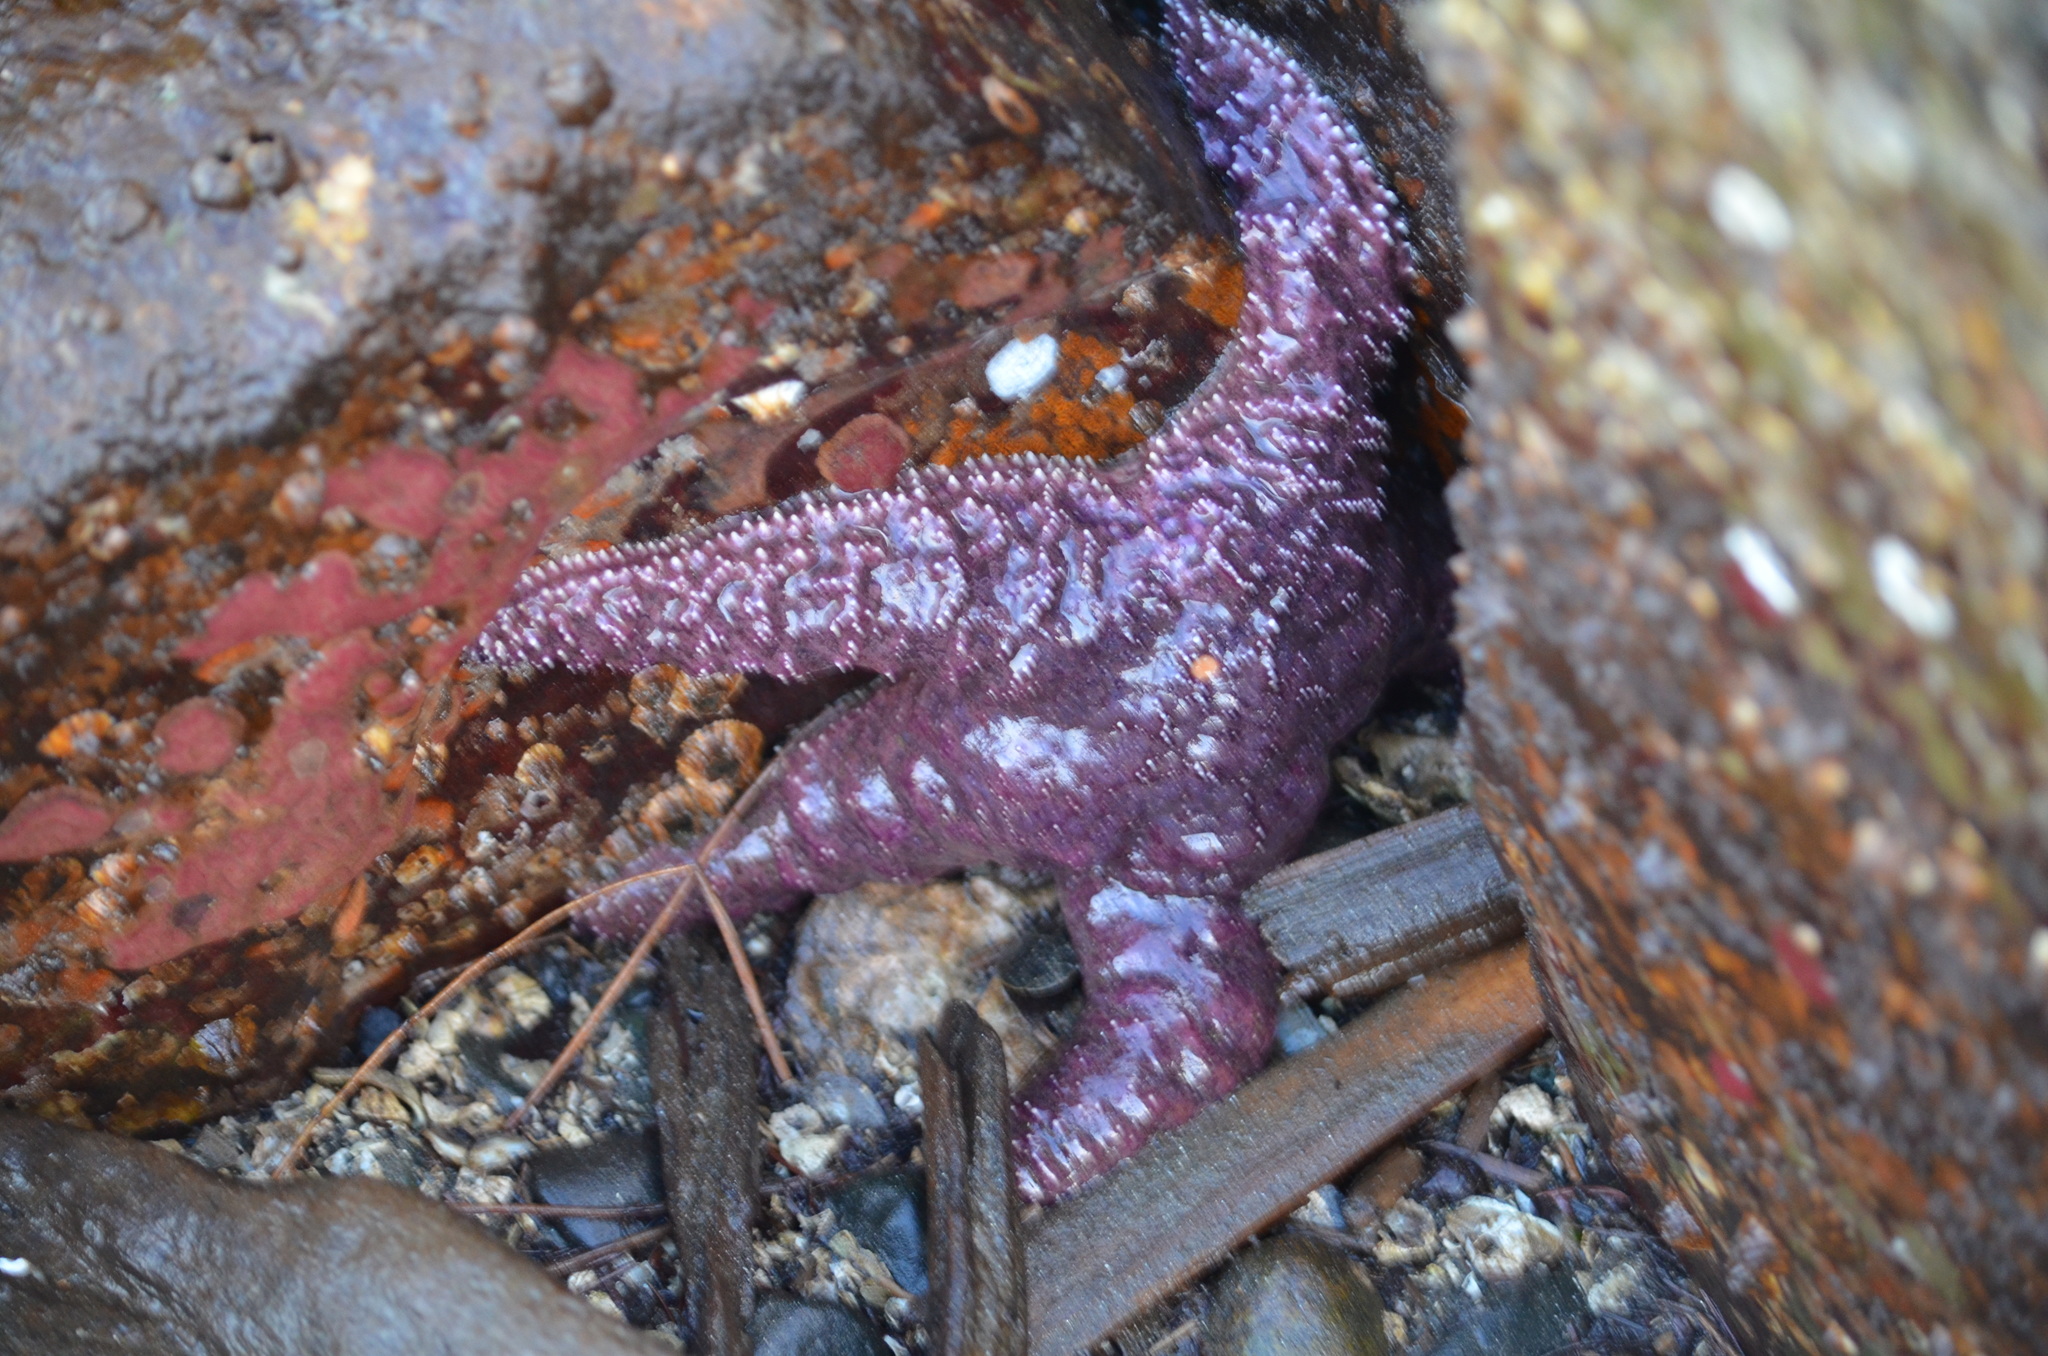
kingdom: Animalia
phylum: Echinodermata
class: Asteroidea
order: Forcipulatida
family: Asteriidae
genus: Pisaster
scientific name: Pisaster ochraceus
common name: Ochre stars
